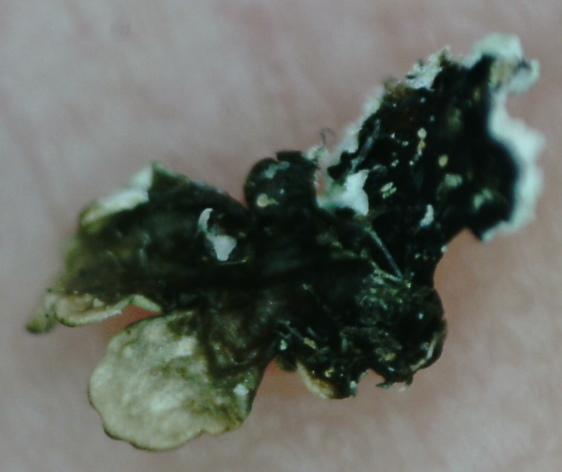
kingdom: Fungi
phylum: Ascomycota
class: Lecanoromycetes
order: Lecanorales
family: Parmeliaceae
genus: Parmeliopsis
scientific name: Parmeliopsis hyperopta
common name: Grey starburst lichen
